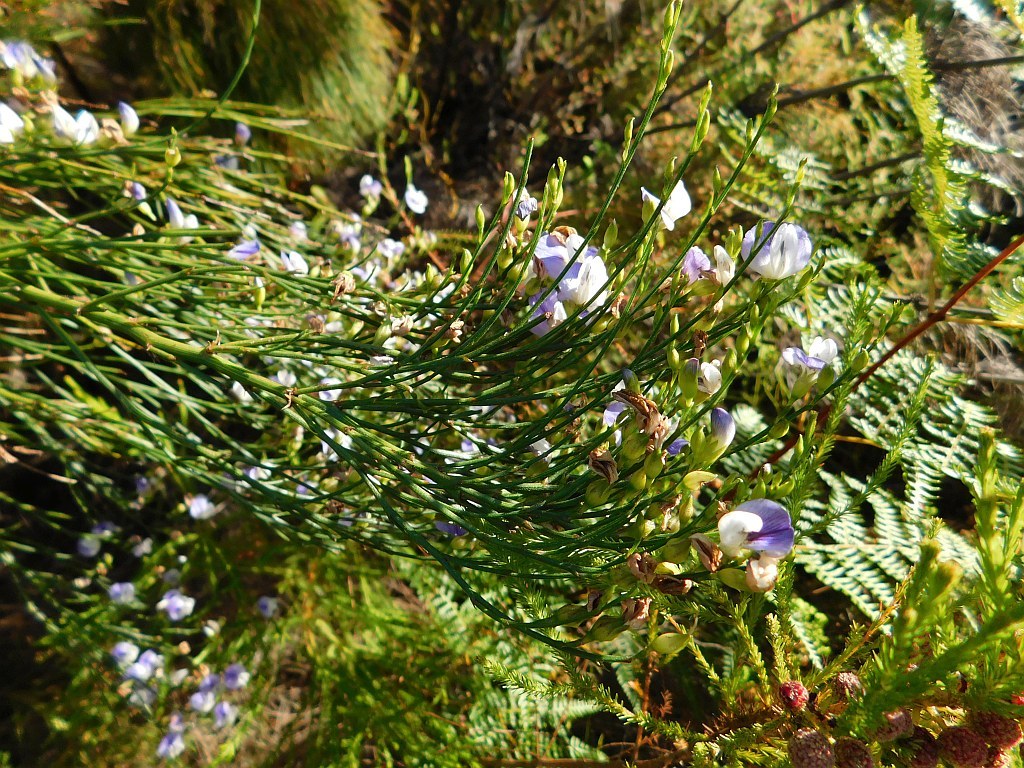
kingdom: Plantae
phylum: Tracheophyta
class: Magnoliopsida
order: Fabales
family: Fabaceae
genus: Psoralea
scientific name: Psoralea usitata
